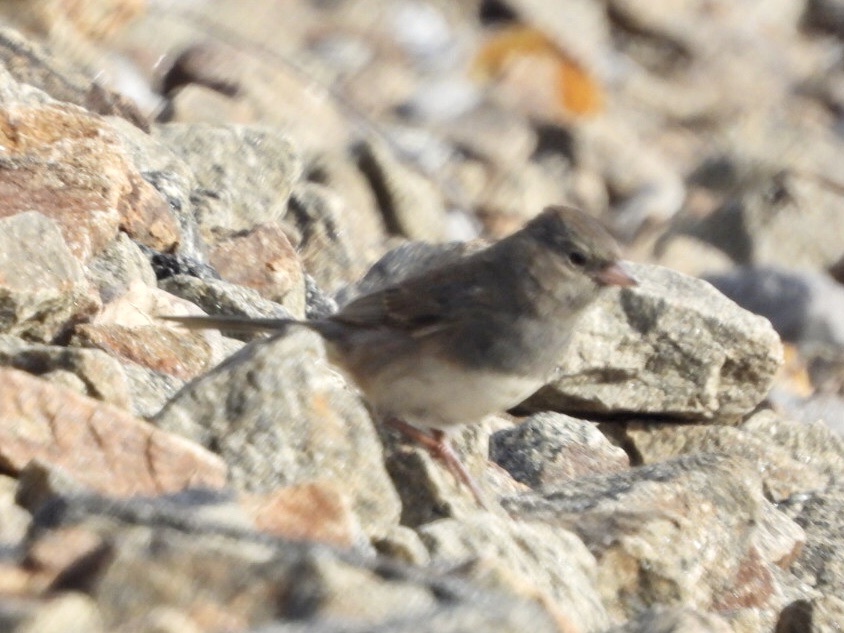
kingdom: Animalia
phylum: Chordata
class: Aves
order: Passeriformes
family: Passerellidae
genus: Junco
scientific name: Junco hyemalis
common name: Dark-eyed junco
